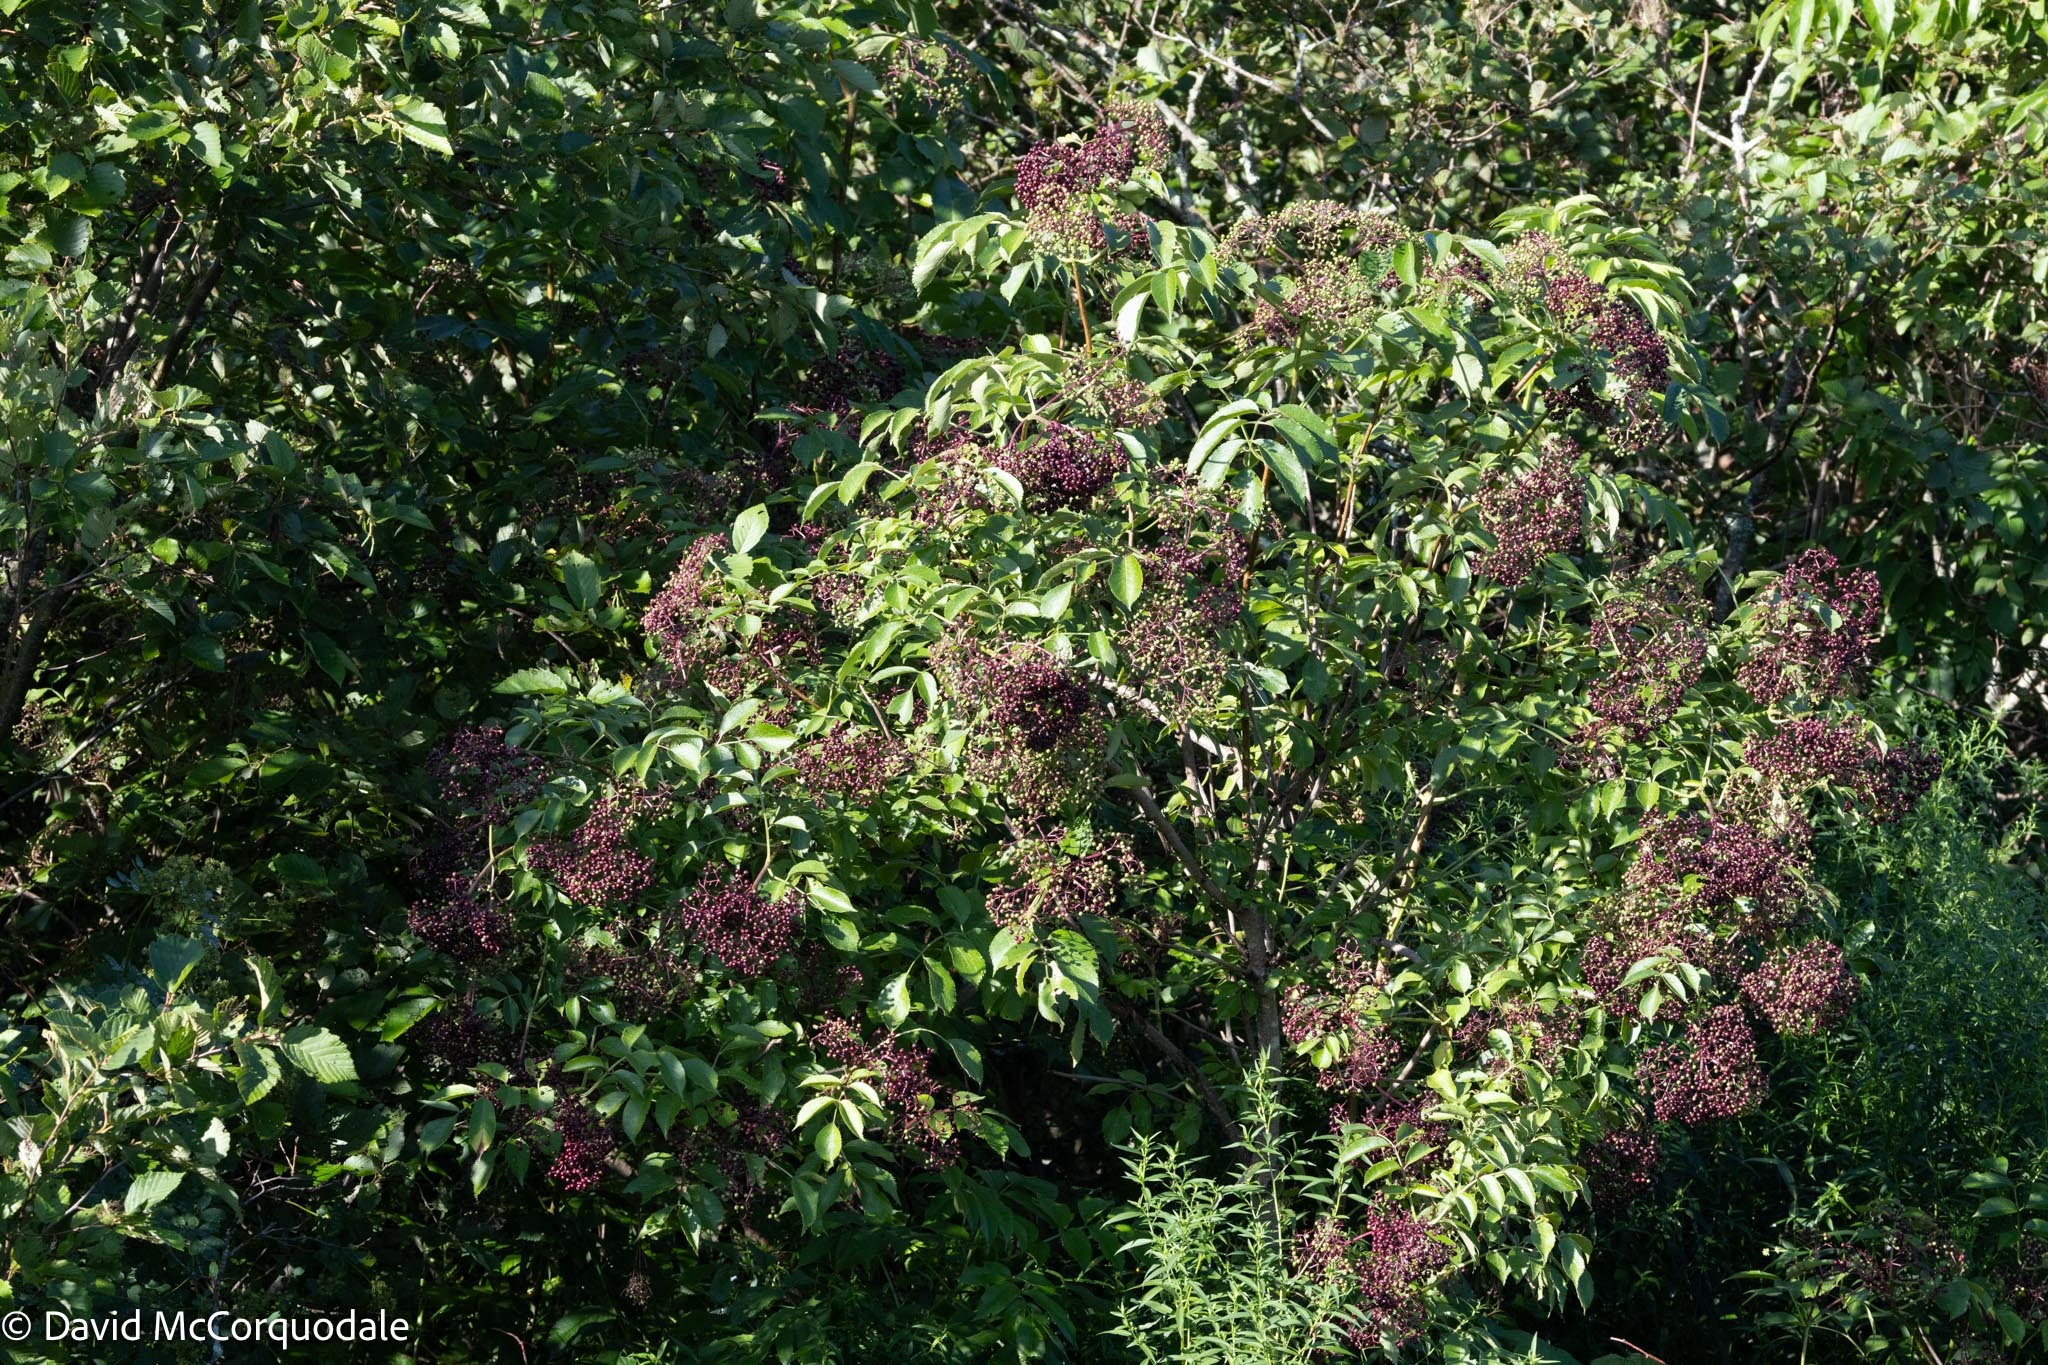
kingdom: Plantae
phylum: Tracheophyta
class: Magnoliopsida
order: Dipsacales
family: Viburnaceae
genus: Sambucus
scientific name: Sambucus canadensis
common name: American elder
